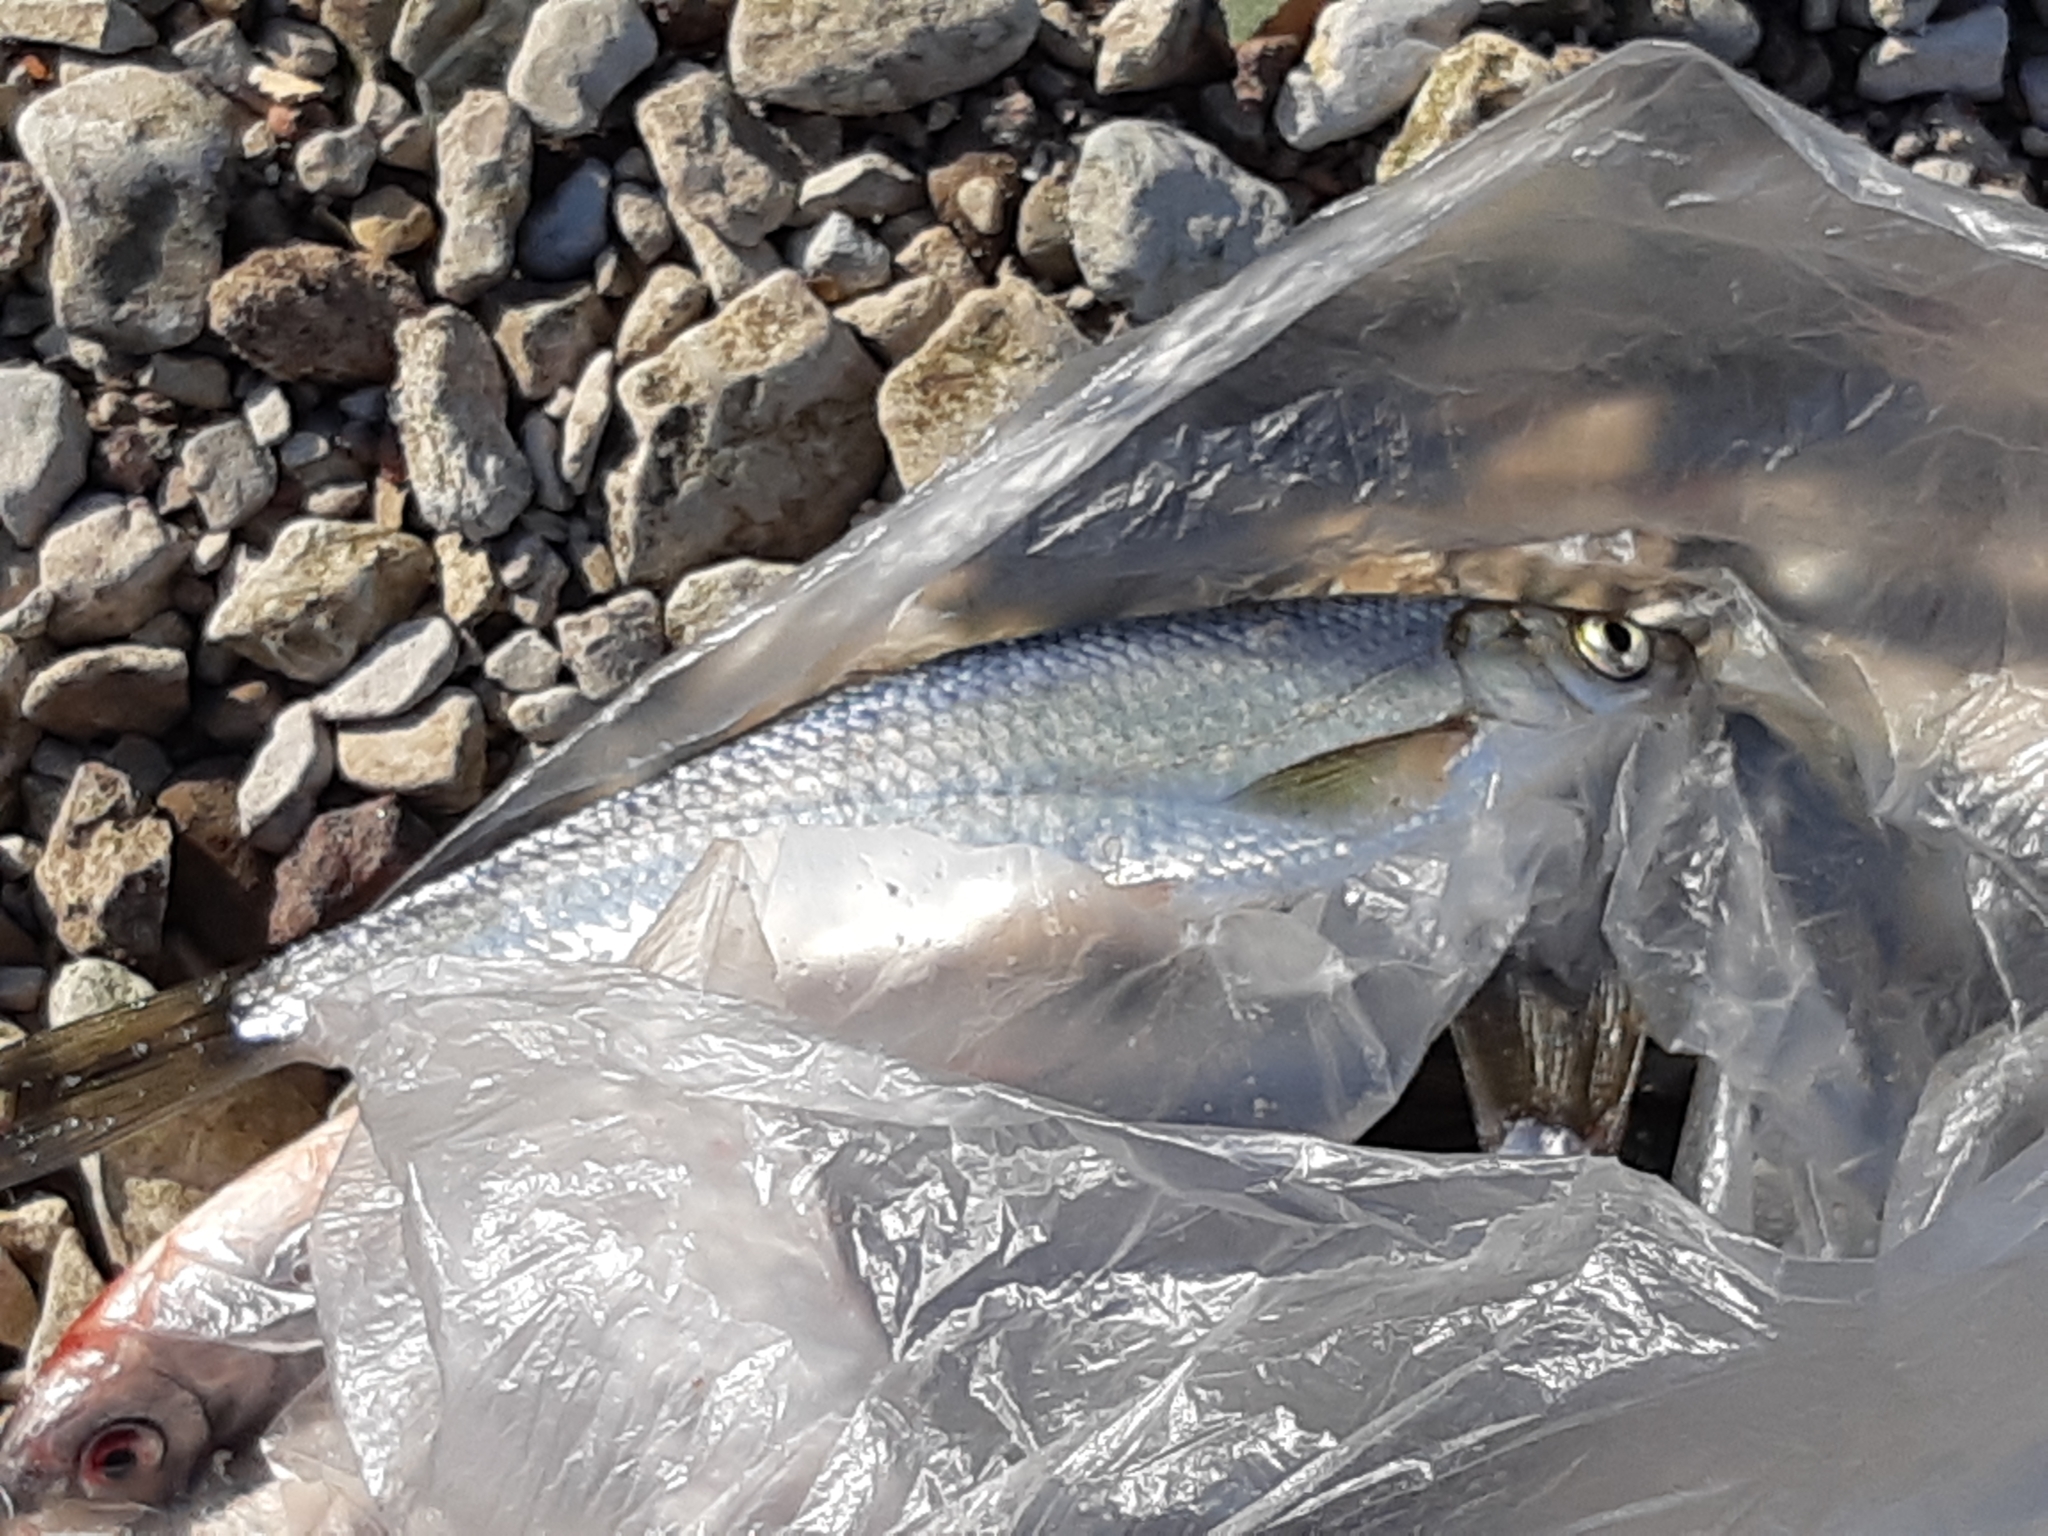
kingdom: Animalia
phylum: Chordata
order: Cypriniformes
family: Cyprinidae
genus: Alburnus
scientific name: Alburnus alburnus
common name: Bleak
